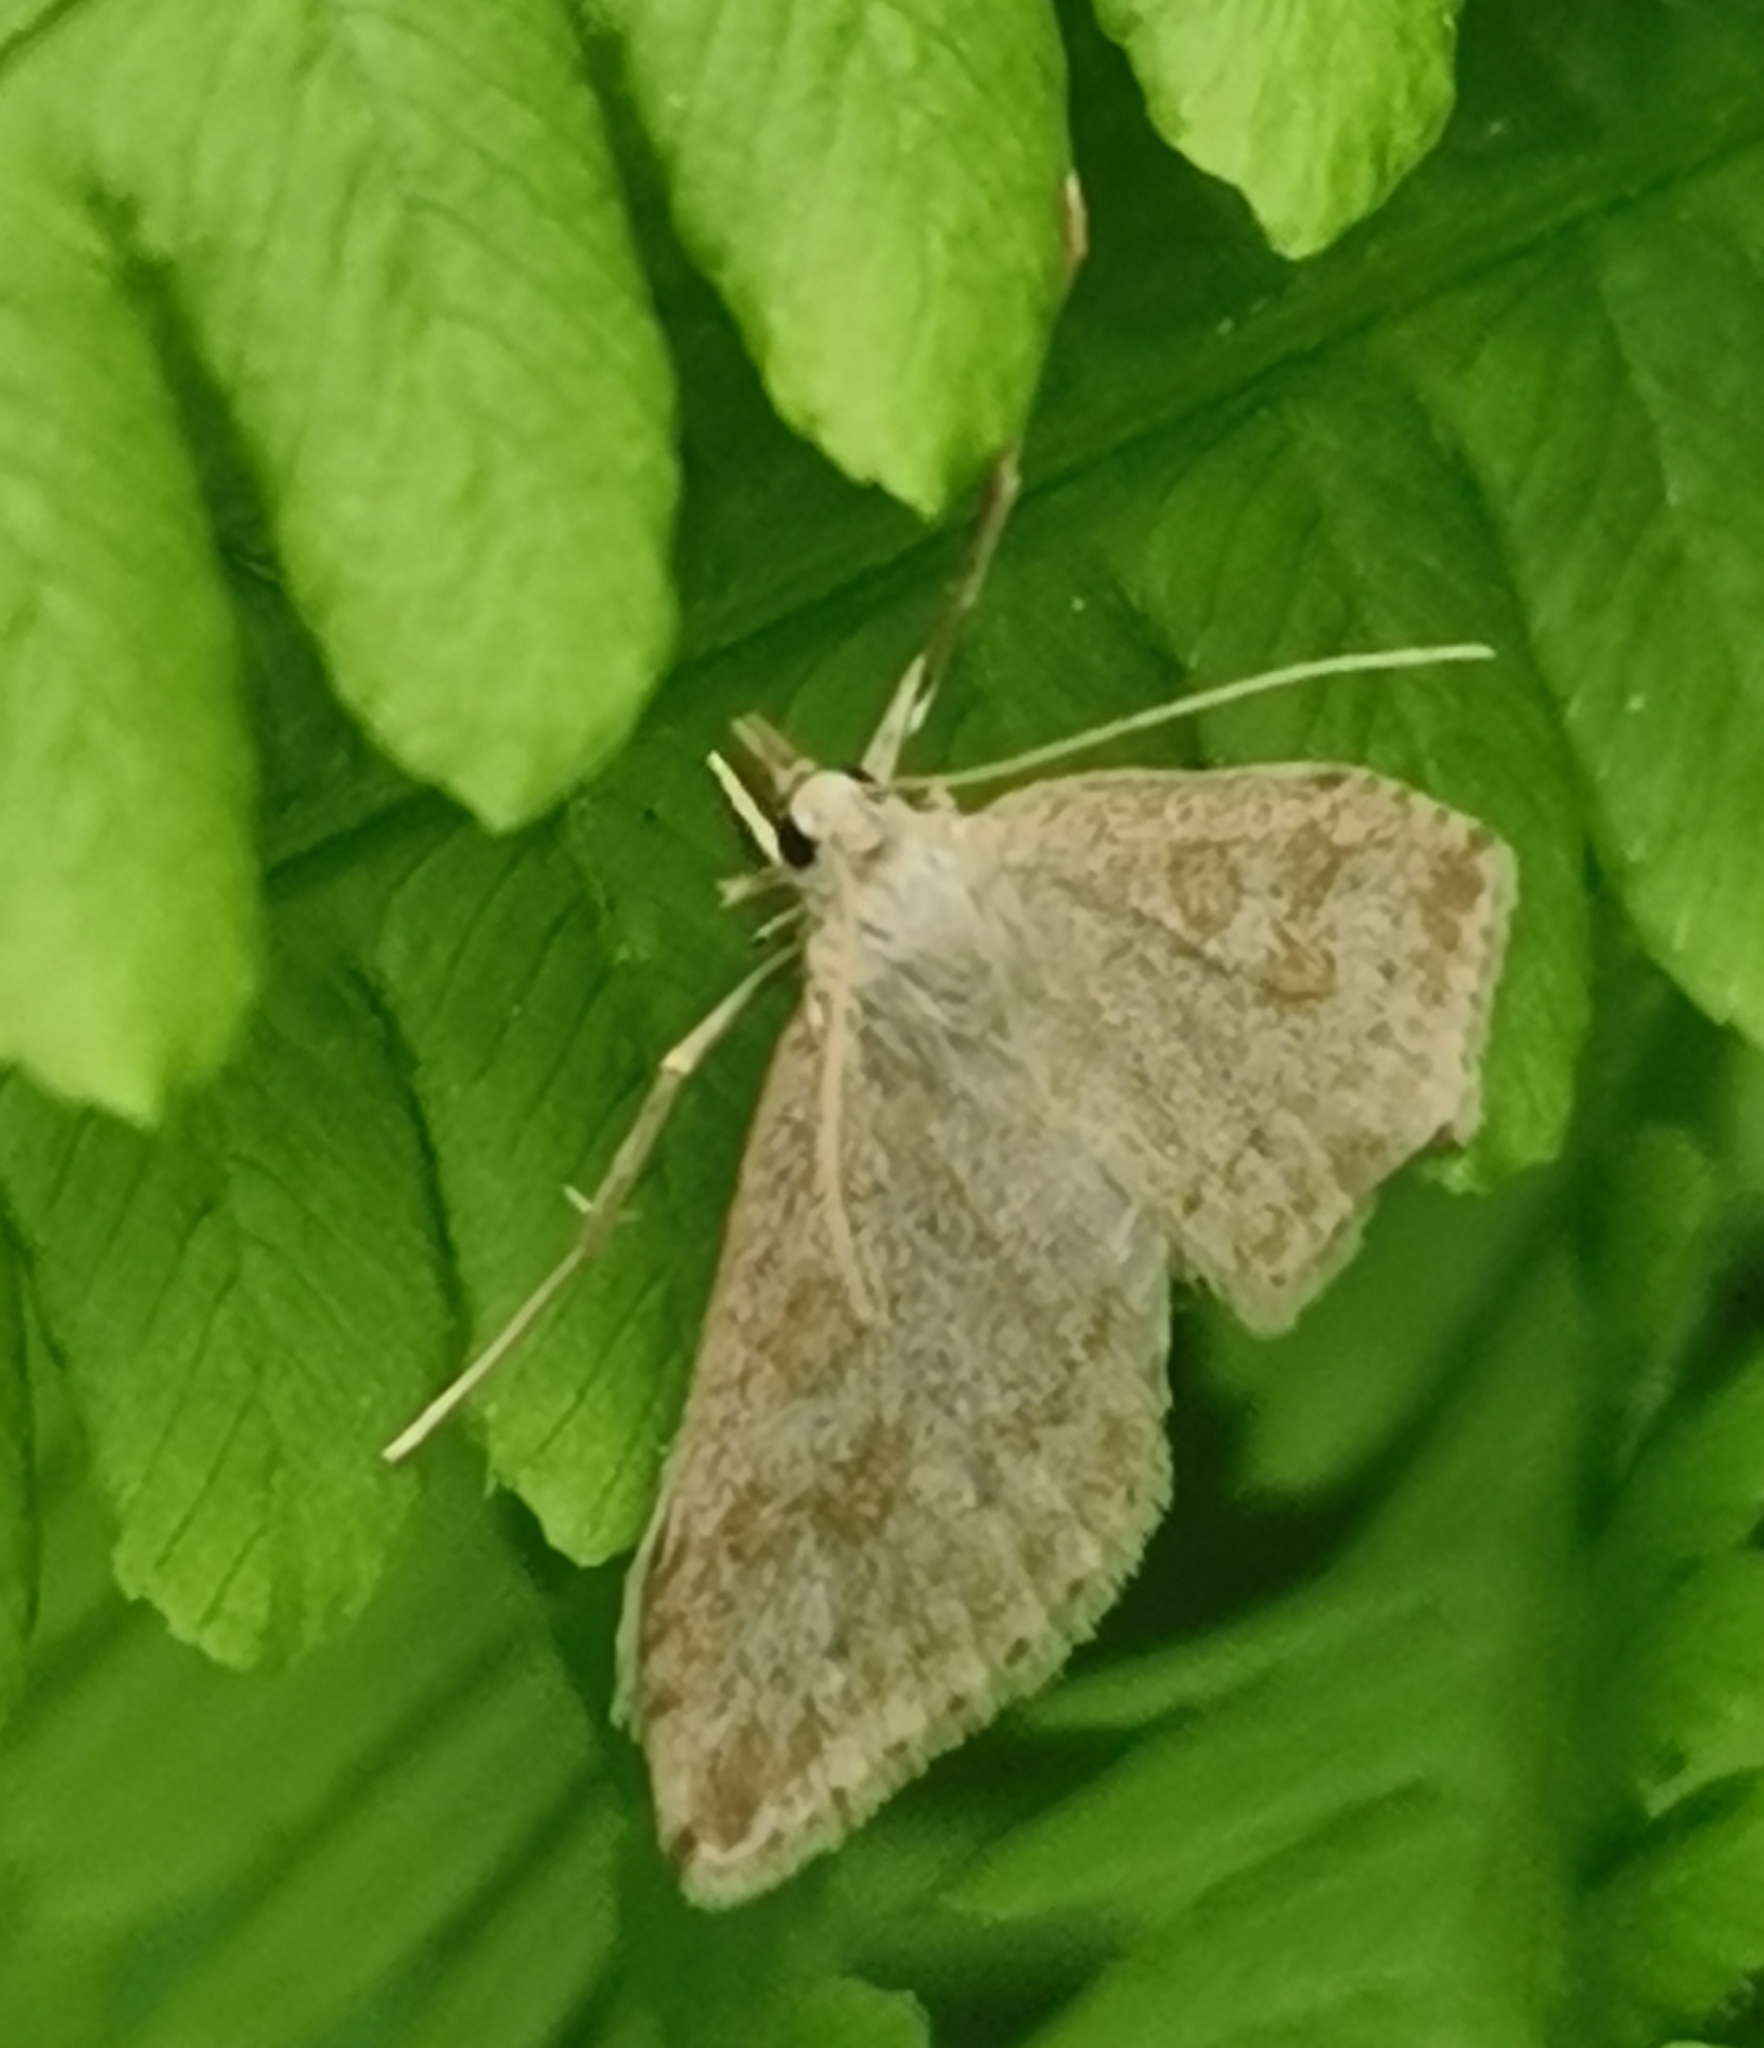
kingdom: Animalia
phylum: Arthropoda
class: Insecta
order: Lepidoptera
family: Crambidae
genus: Udea
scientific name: Udea decrepitalis
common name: Scotch pearl
